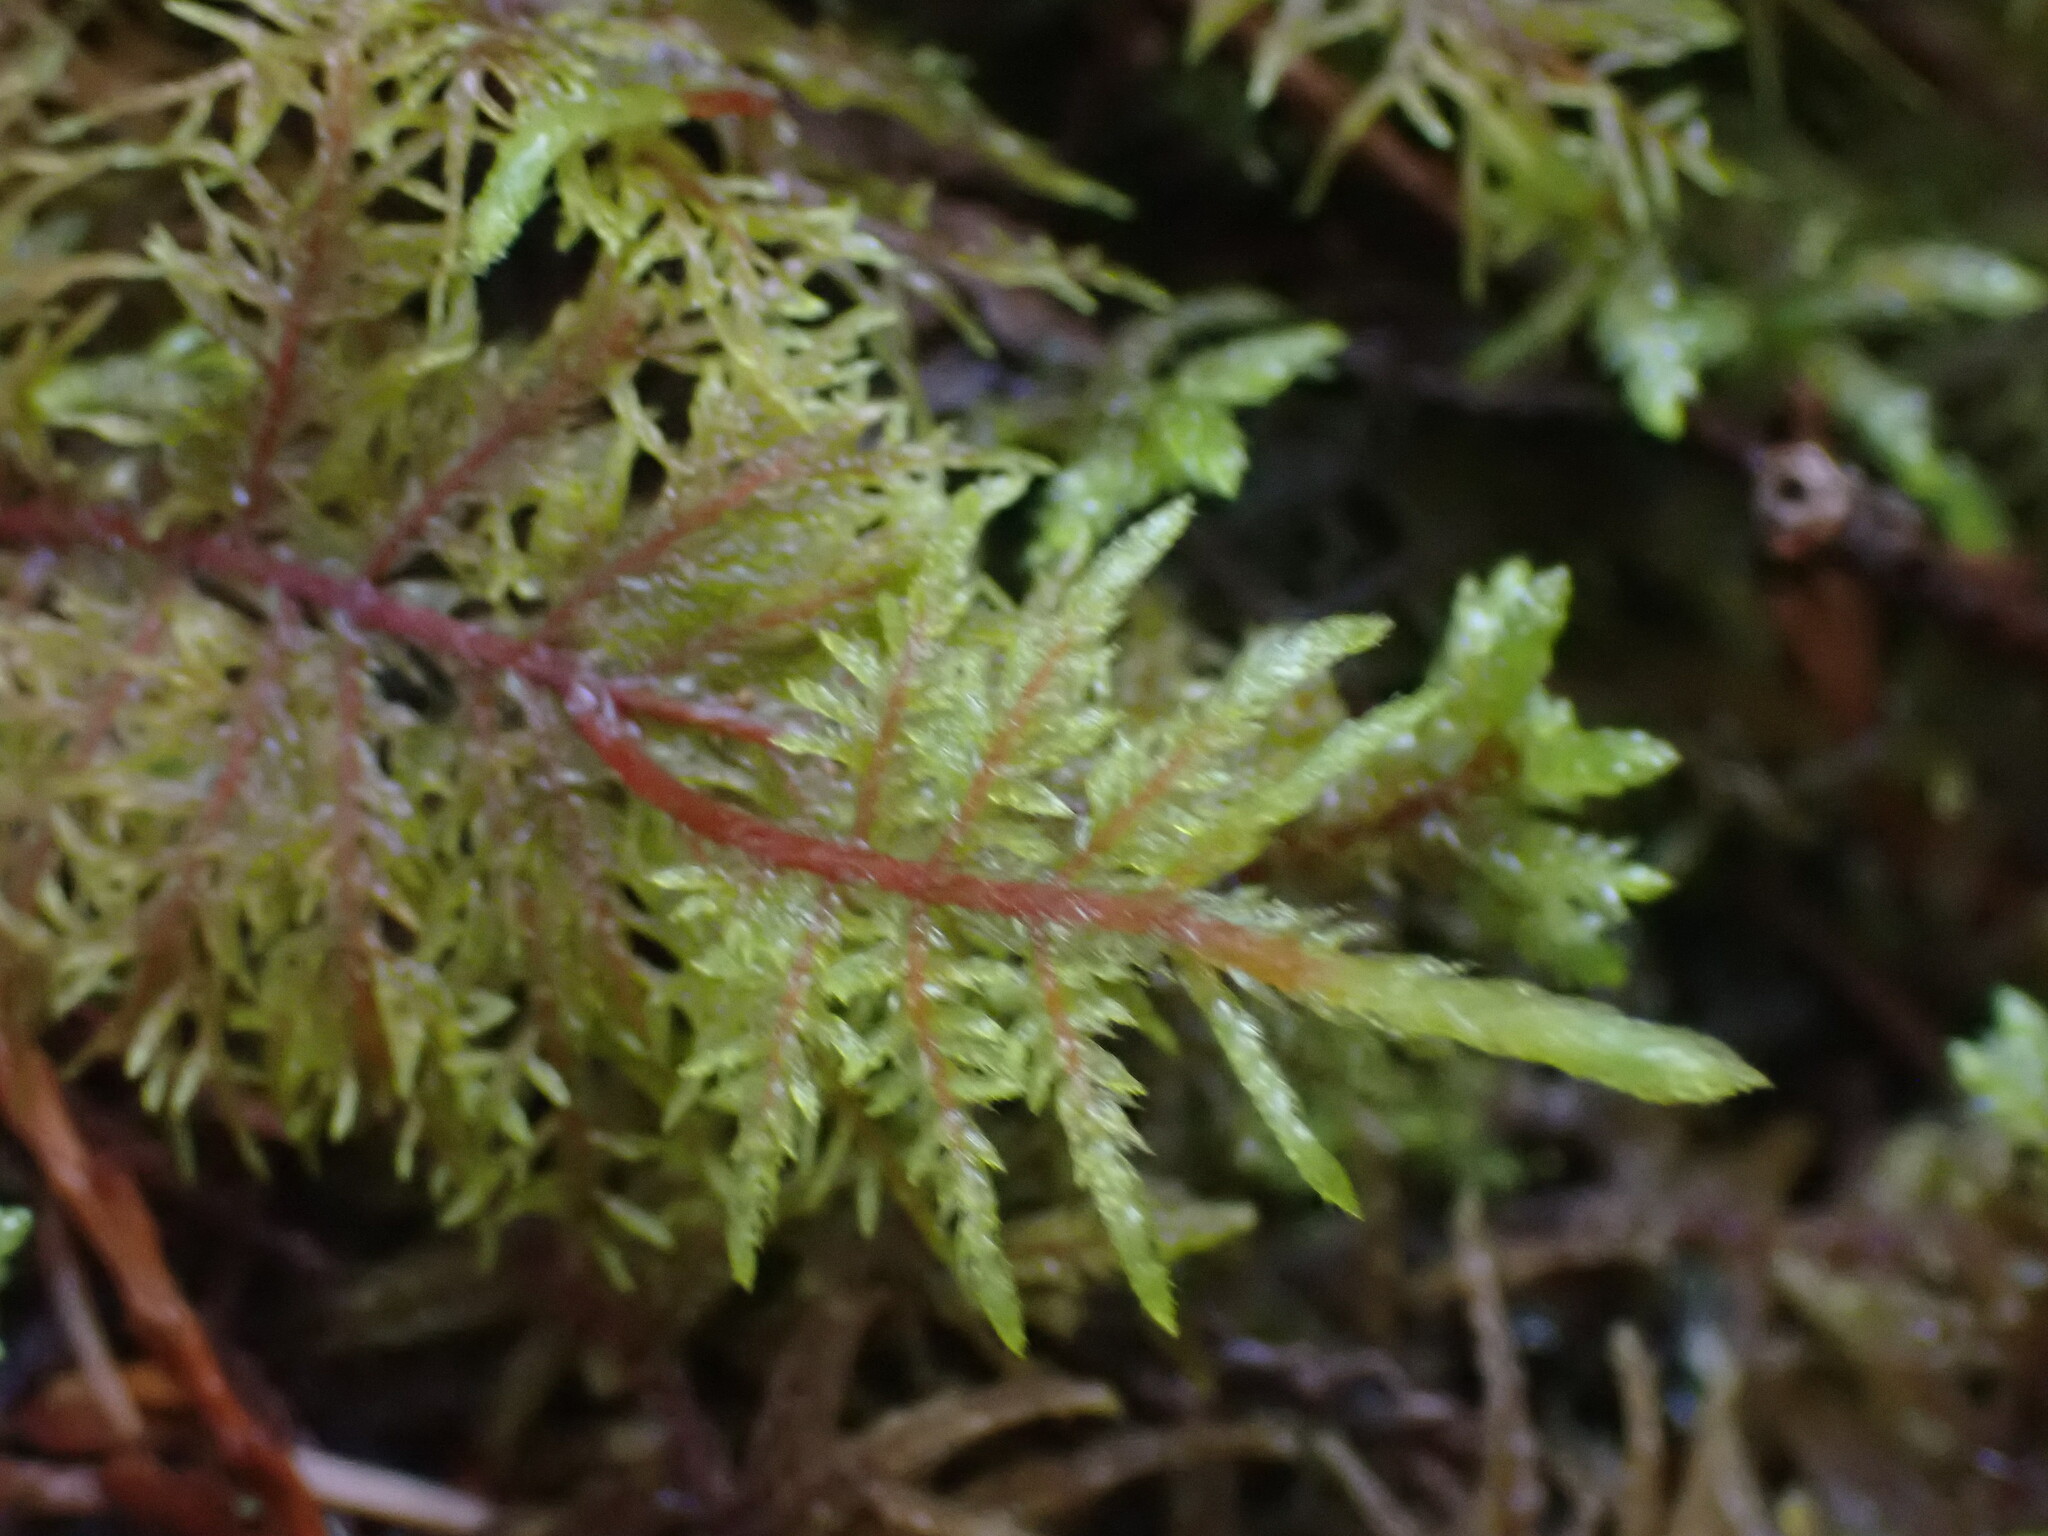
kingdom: Plantae
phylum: Bryophyta
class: Bryopsida
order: Hypnales
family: Hylocomiaceae
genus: Hylocomium
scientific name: Hylocomium splendens
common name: Stairstep moss
